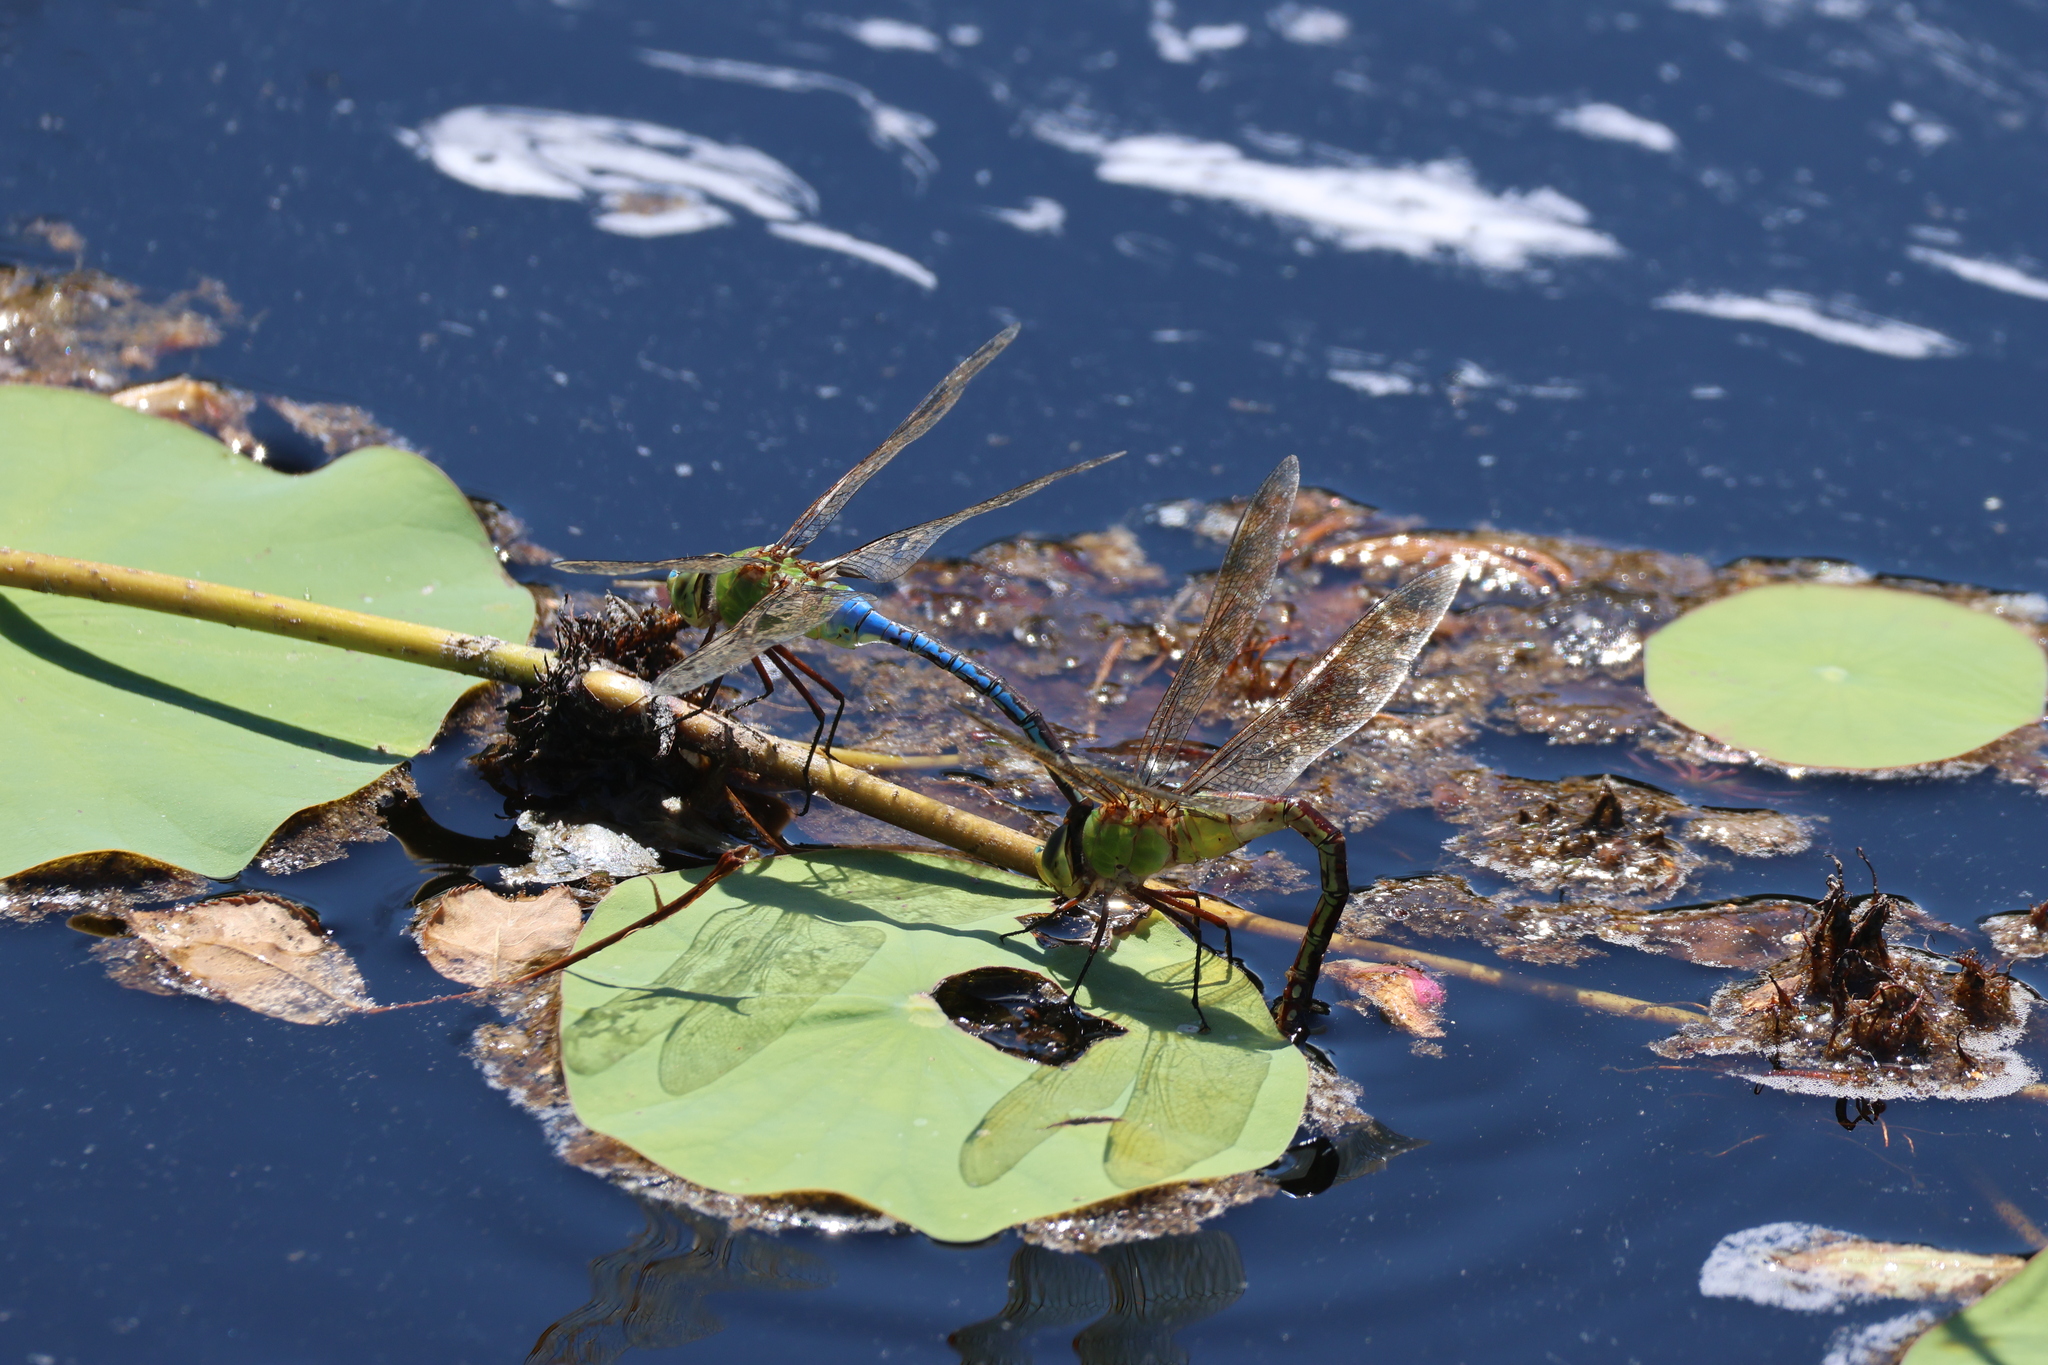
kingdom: Animalia
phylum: Arthropoda
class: Insecta
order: Odonata
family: Aeshnidae
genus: Anax
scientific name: Anax junius
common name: Common green darner
